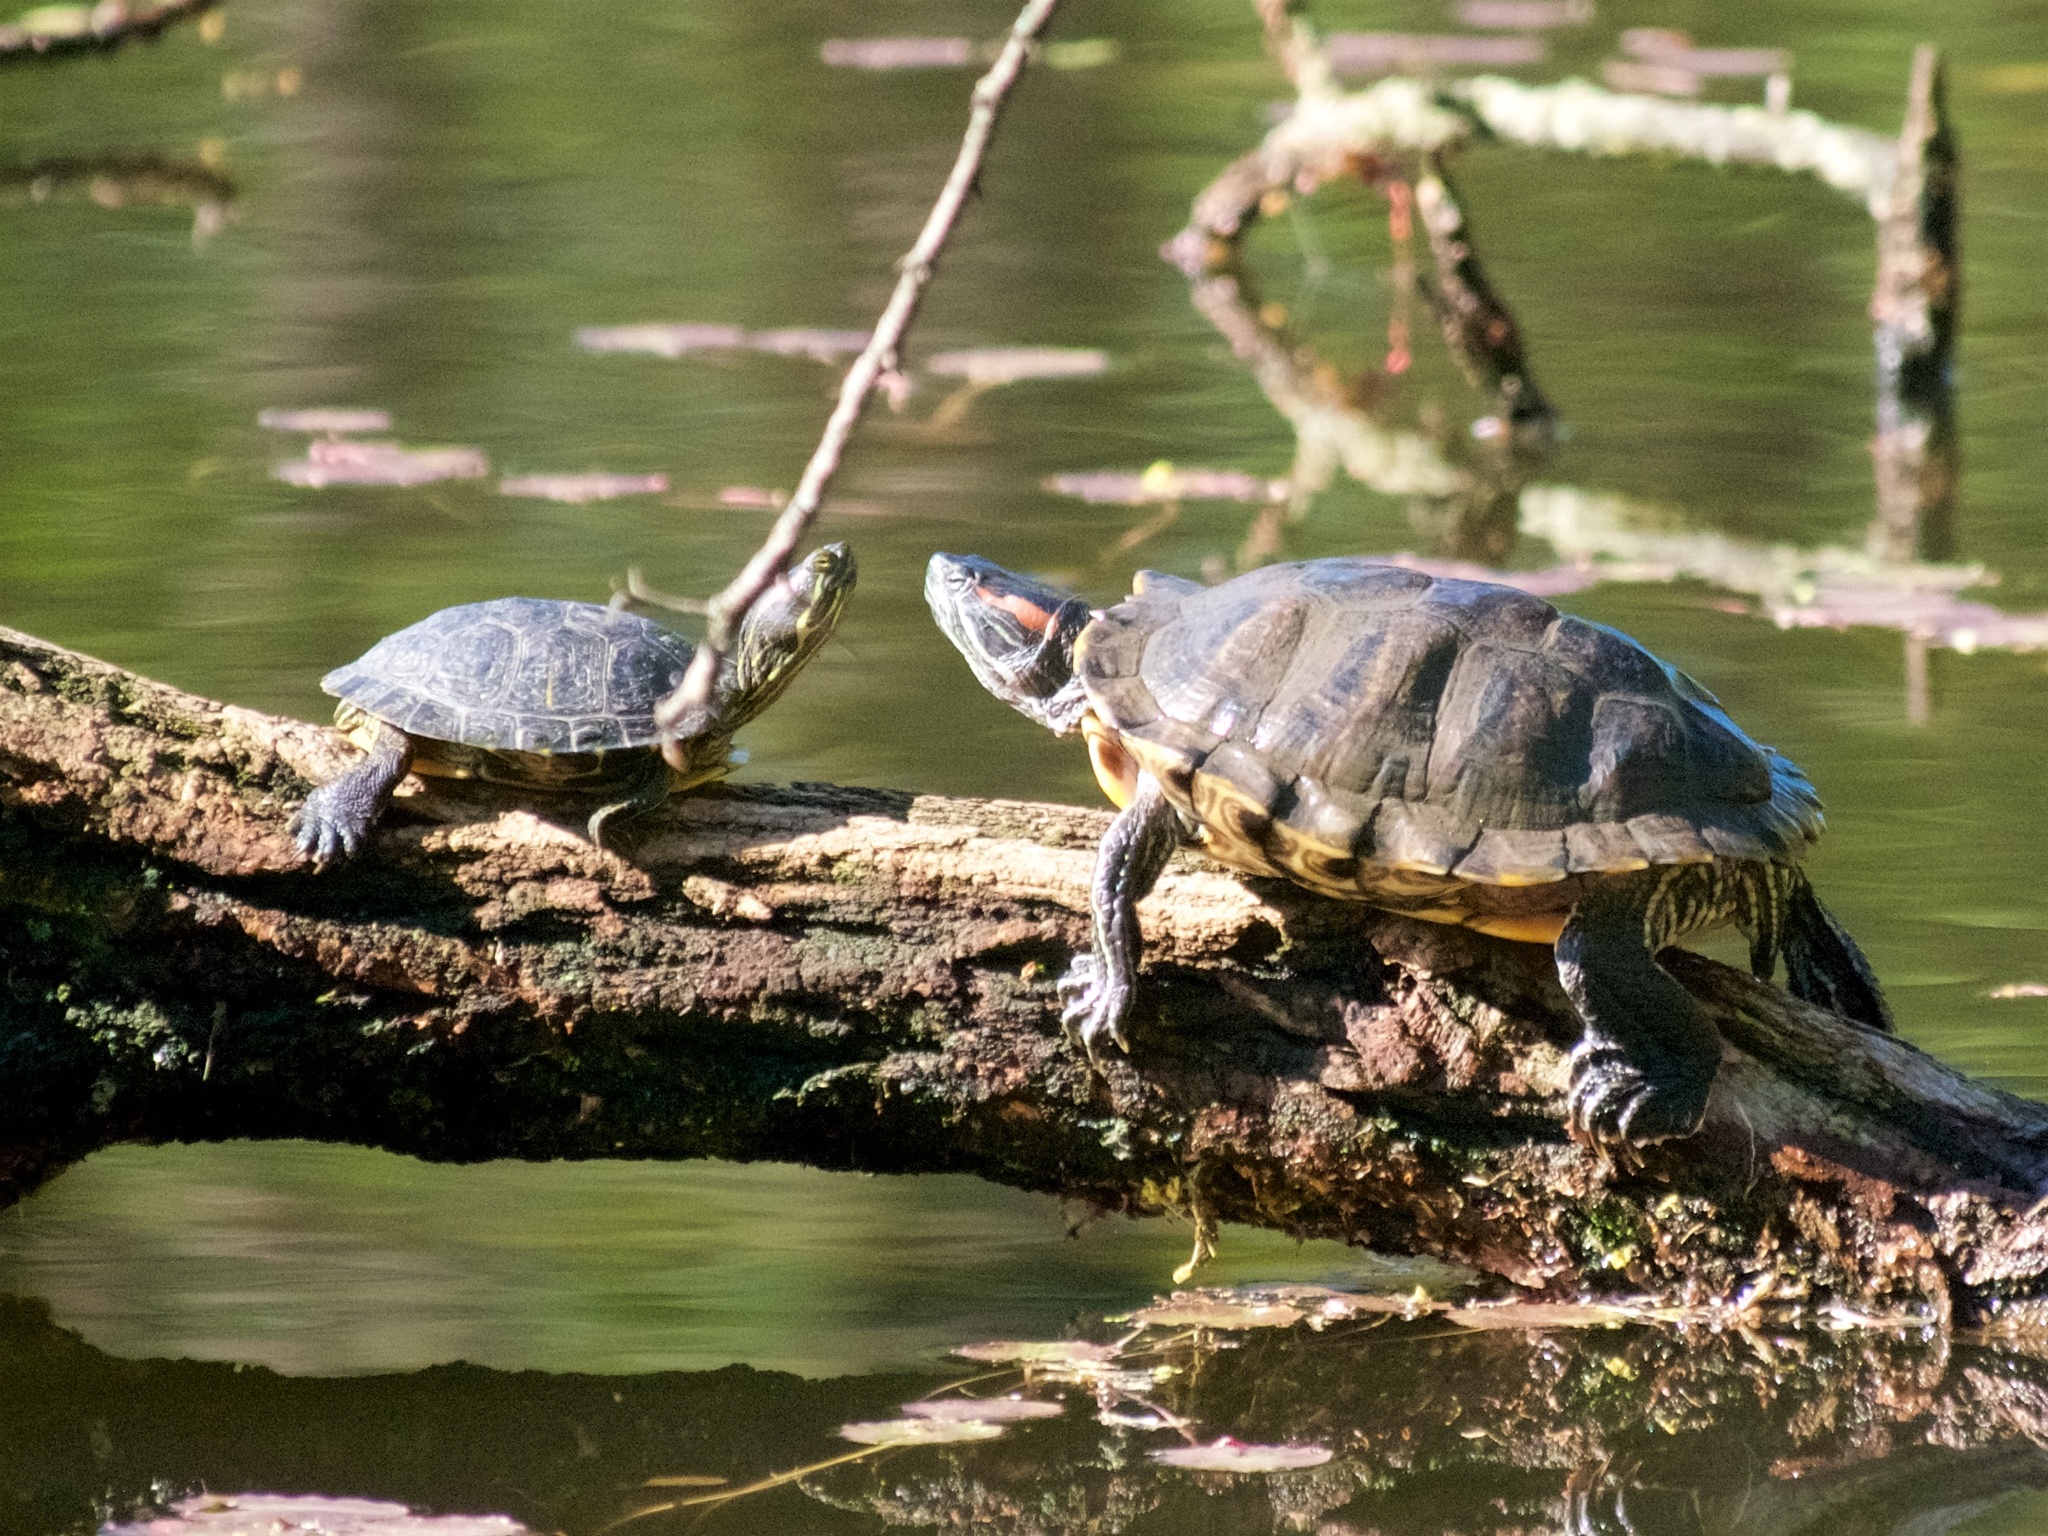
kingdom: Animalia
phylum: Chordata
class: Testudines
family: Emydidae
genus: Trachemys
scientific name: Trachemys scripta
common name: Slider
